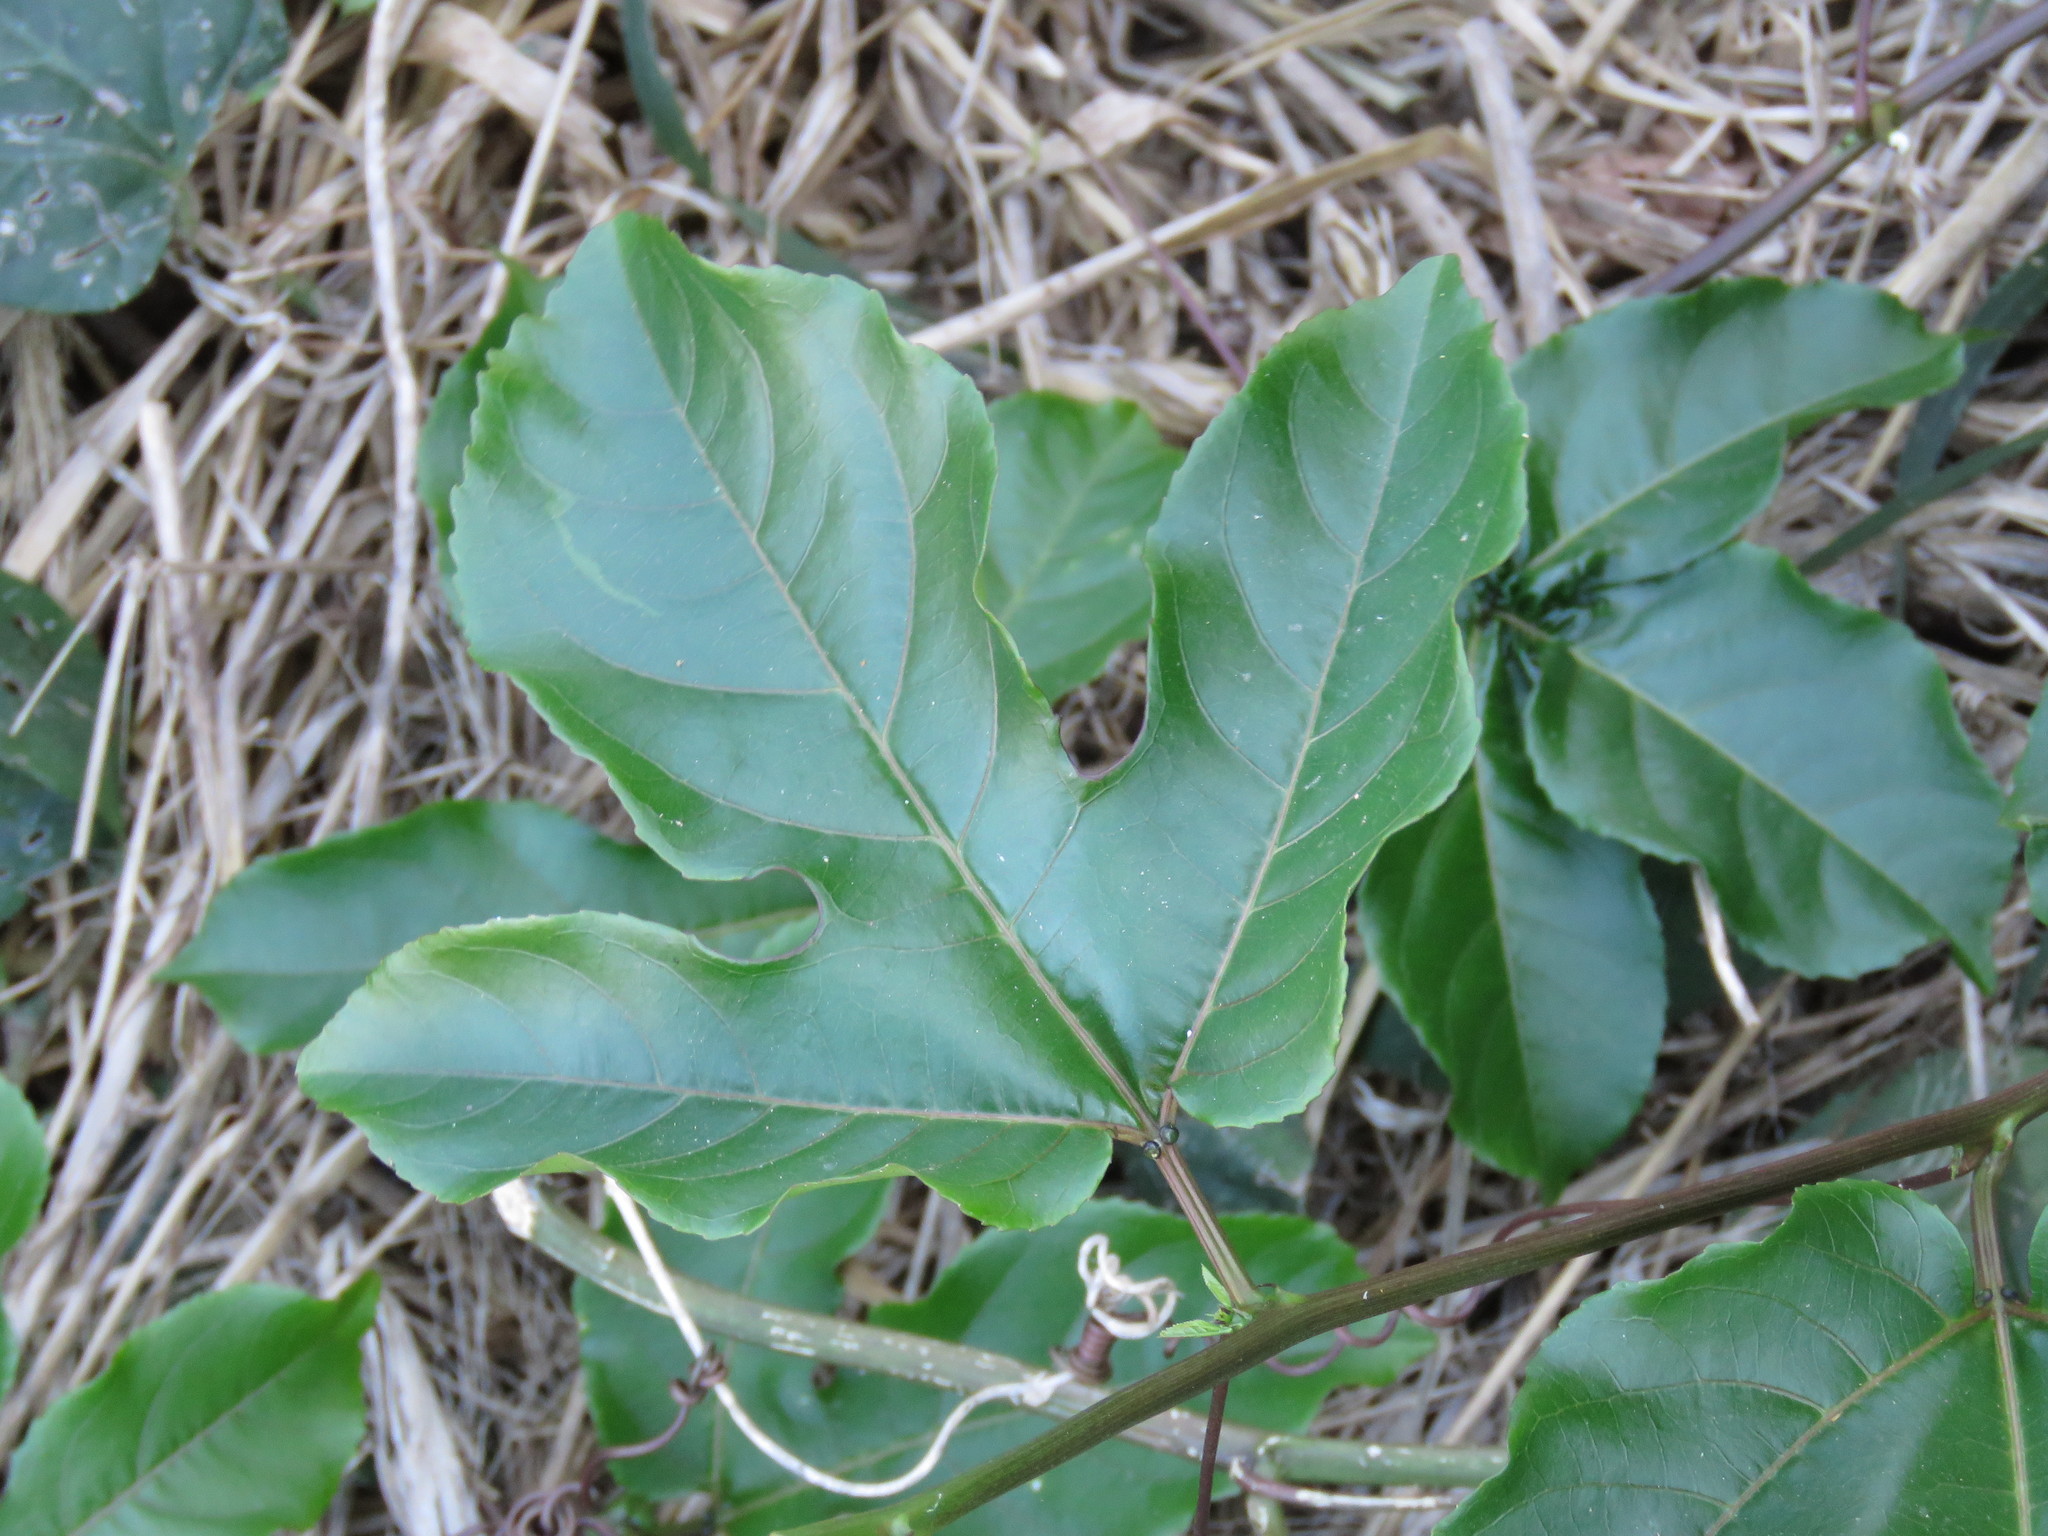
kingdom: Plantae
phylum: Tracheophyta
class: Magnoliopsida
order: Malpighiales
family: Passifloraceae
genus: Passiflora
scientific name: Passiflora edulis
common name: Purple granadilla
